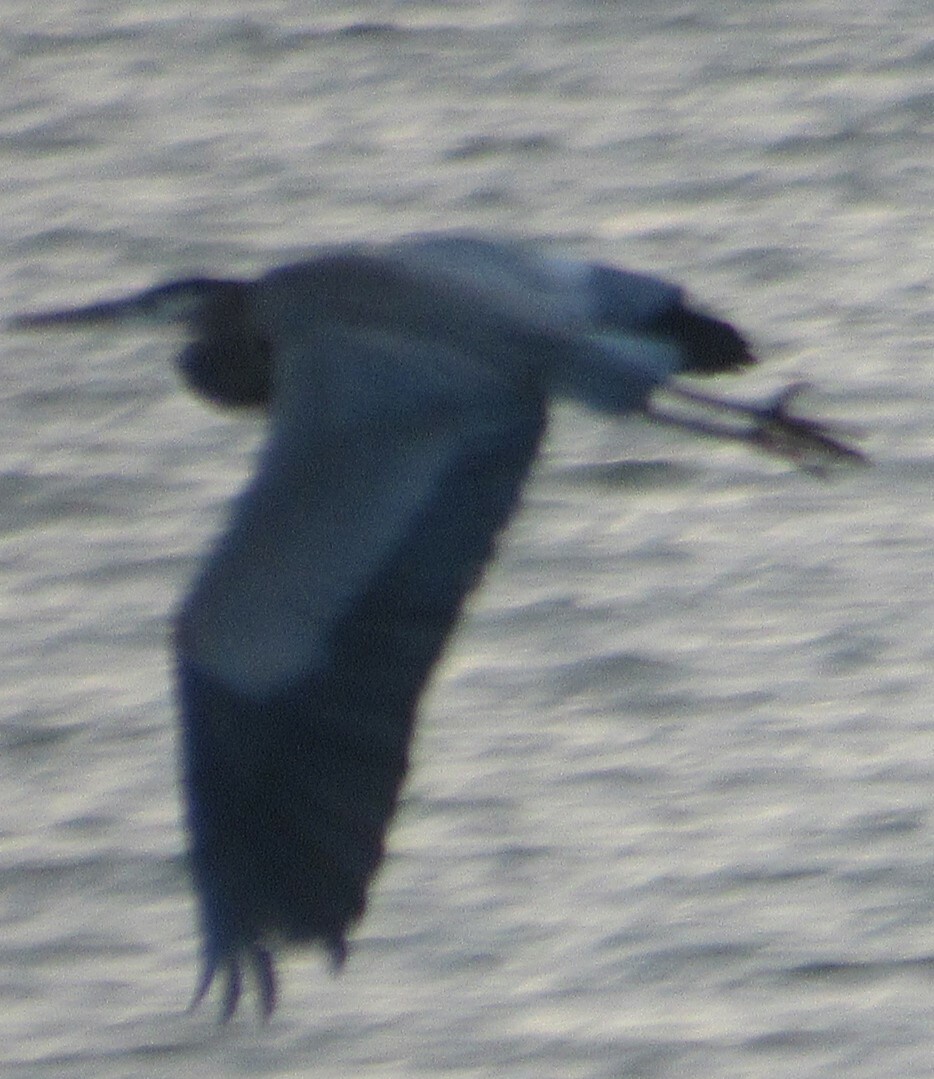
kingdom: Animalia
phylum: Chordata
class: Aves
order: Pelecaniformes
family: Ardeidae
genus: Ardea
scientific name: Ardea herodias
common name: Great blue heron
